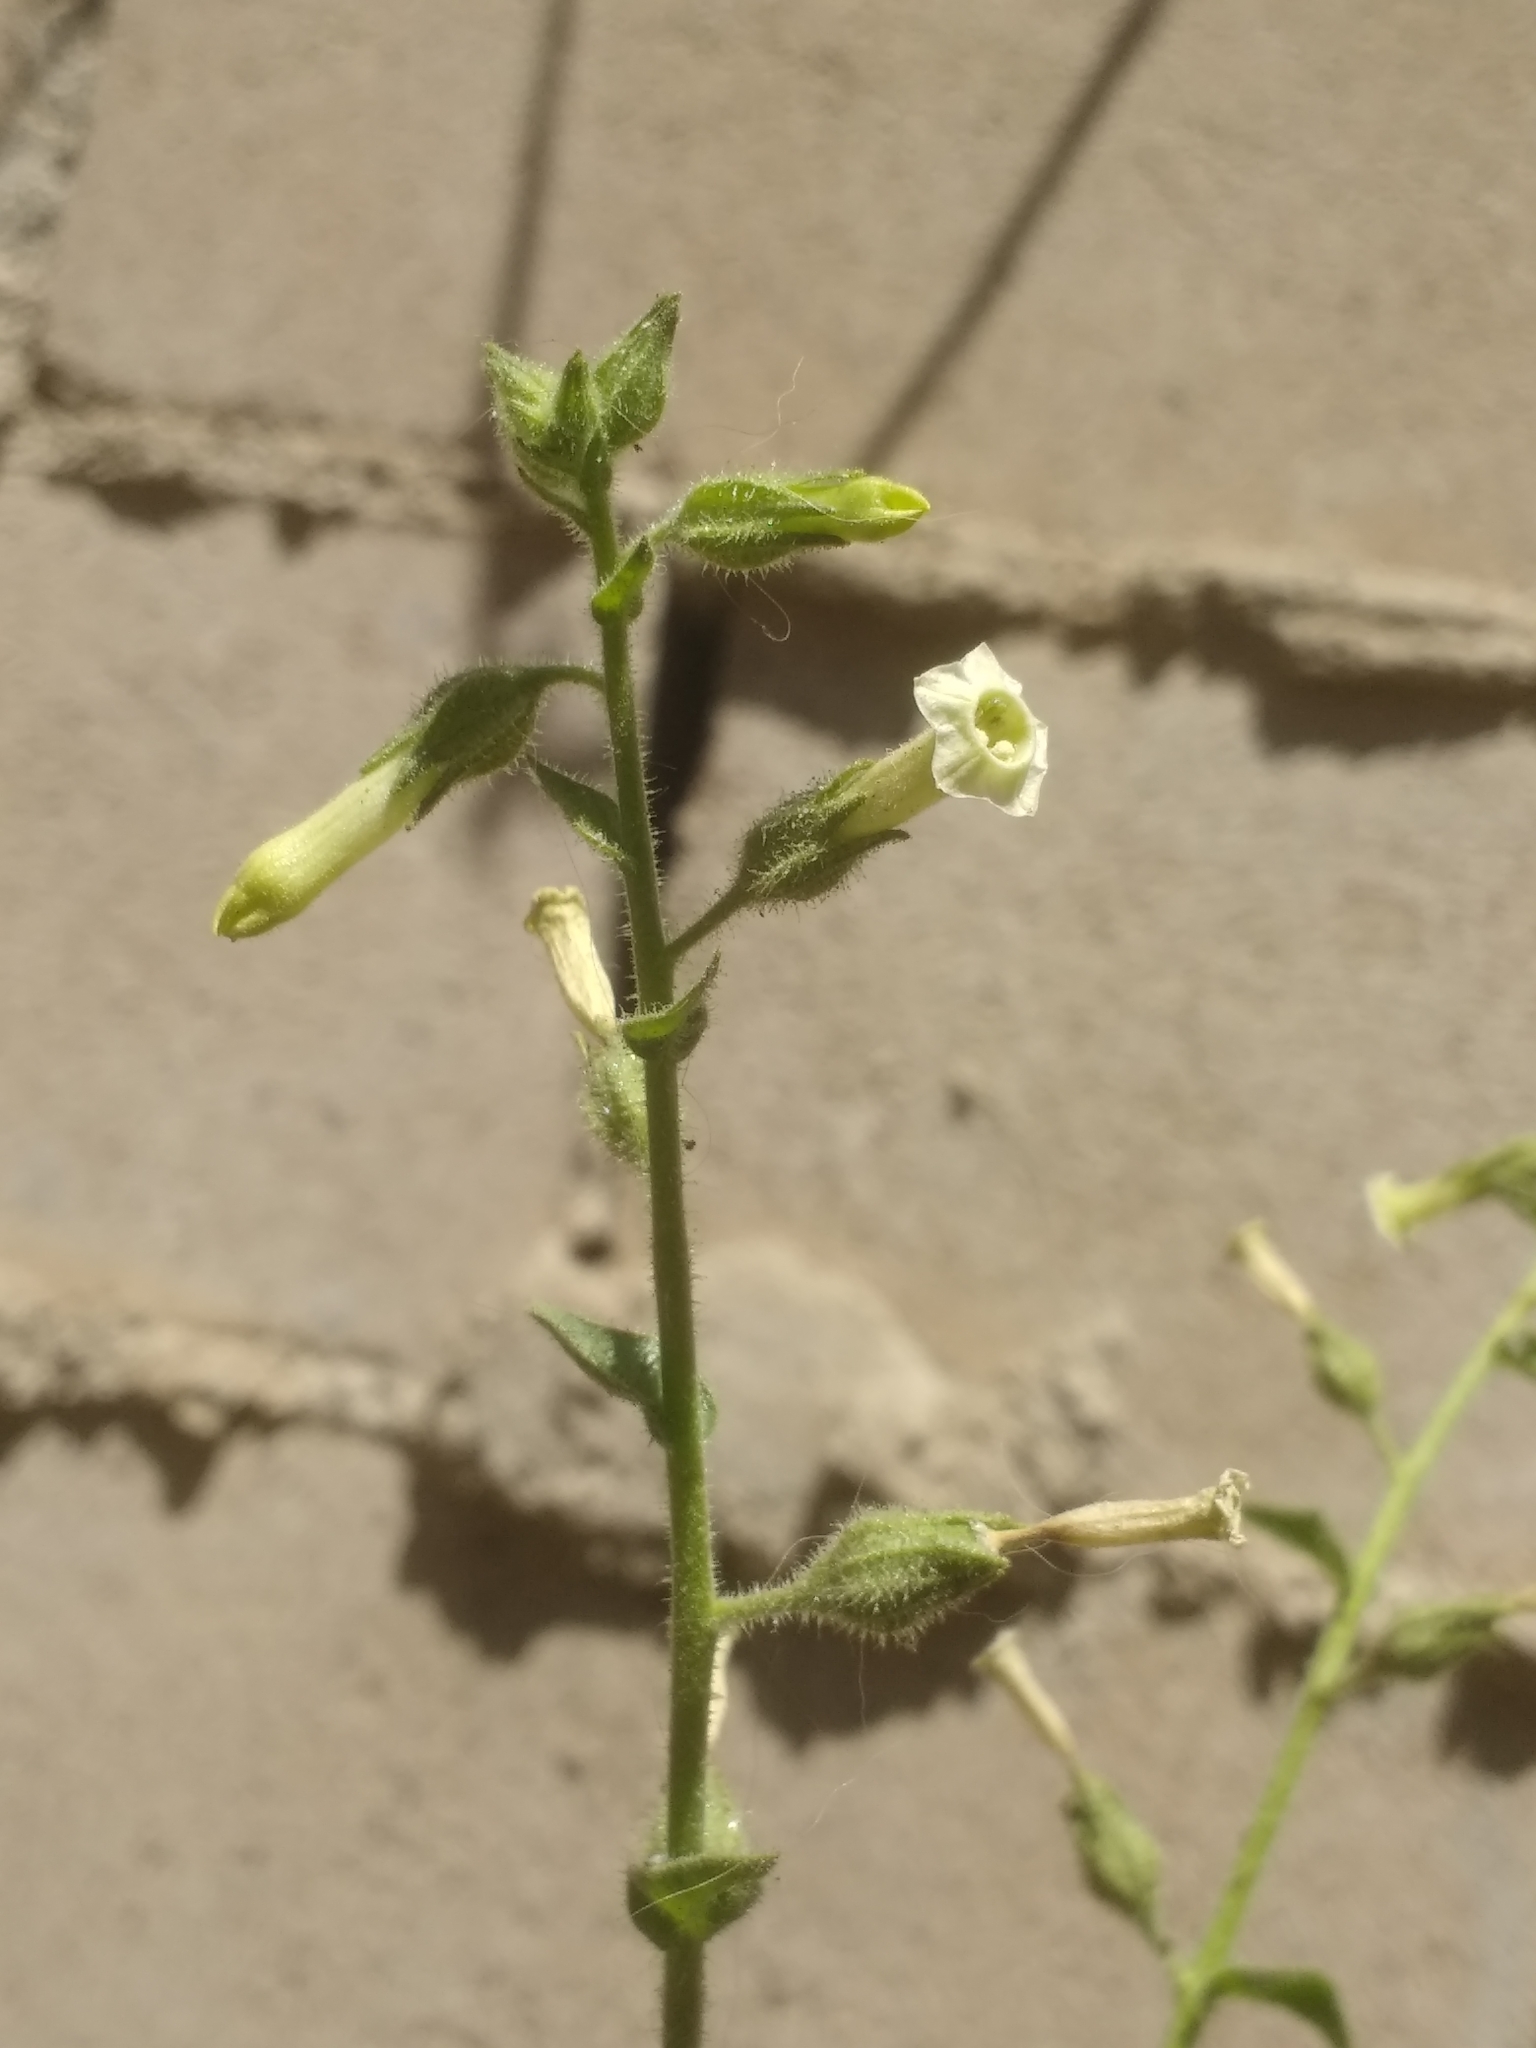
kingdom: Plantae
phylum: Tracheophyta
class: Magnoliopsida
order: Solanales
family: Solanaceae
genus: Nicotiana
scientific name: Nicotiana obtusifolia
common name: Desert tobacco
